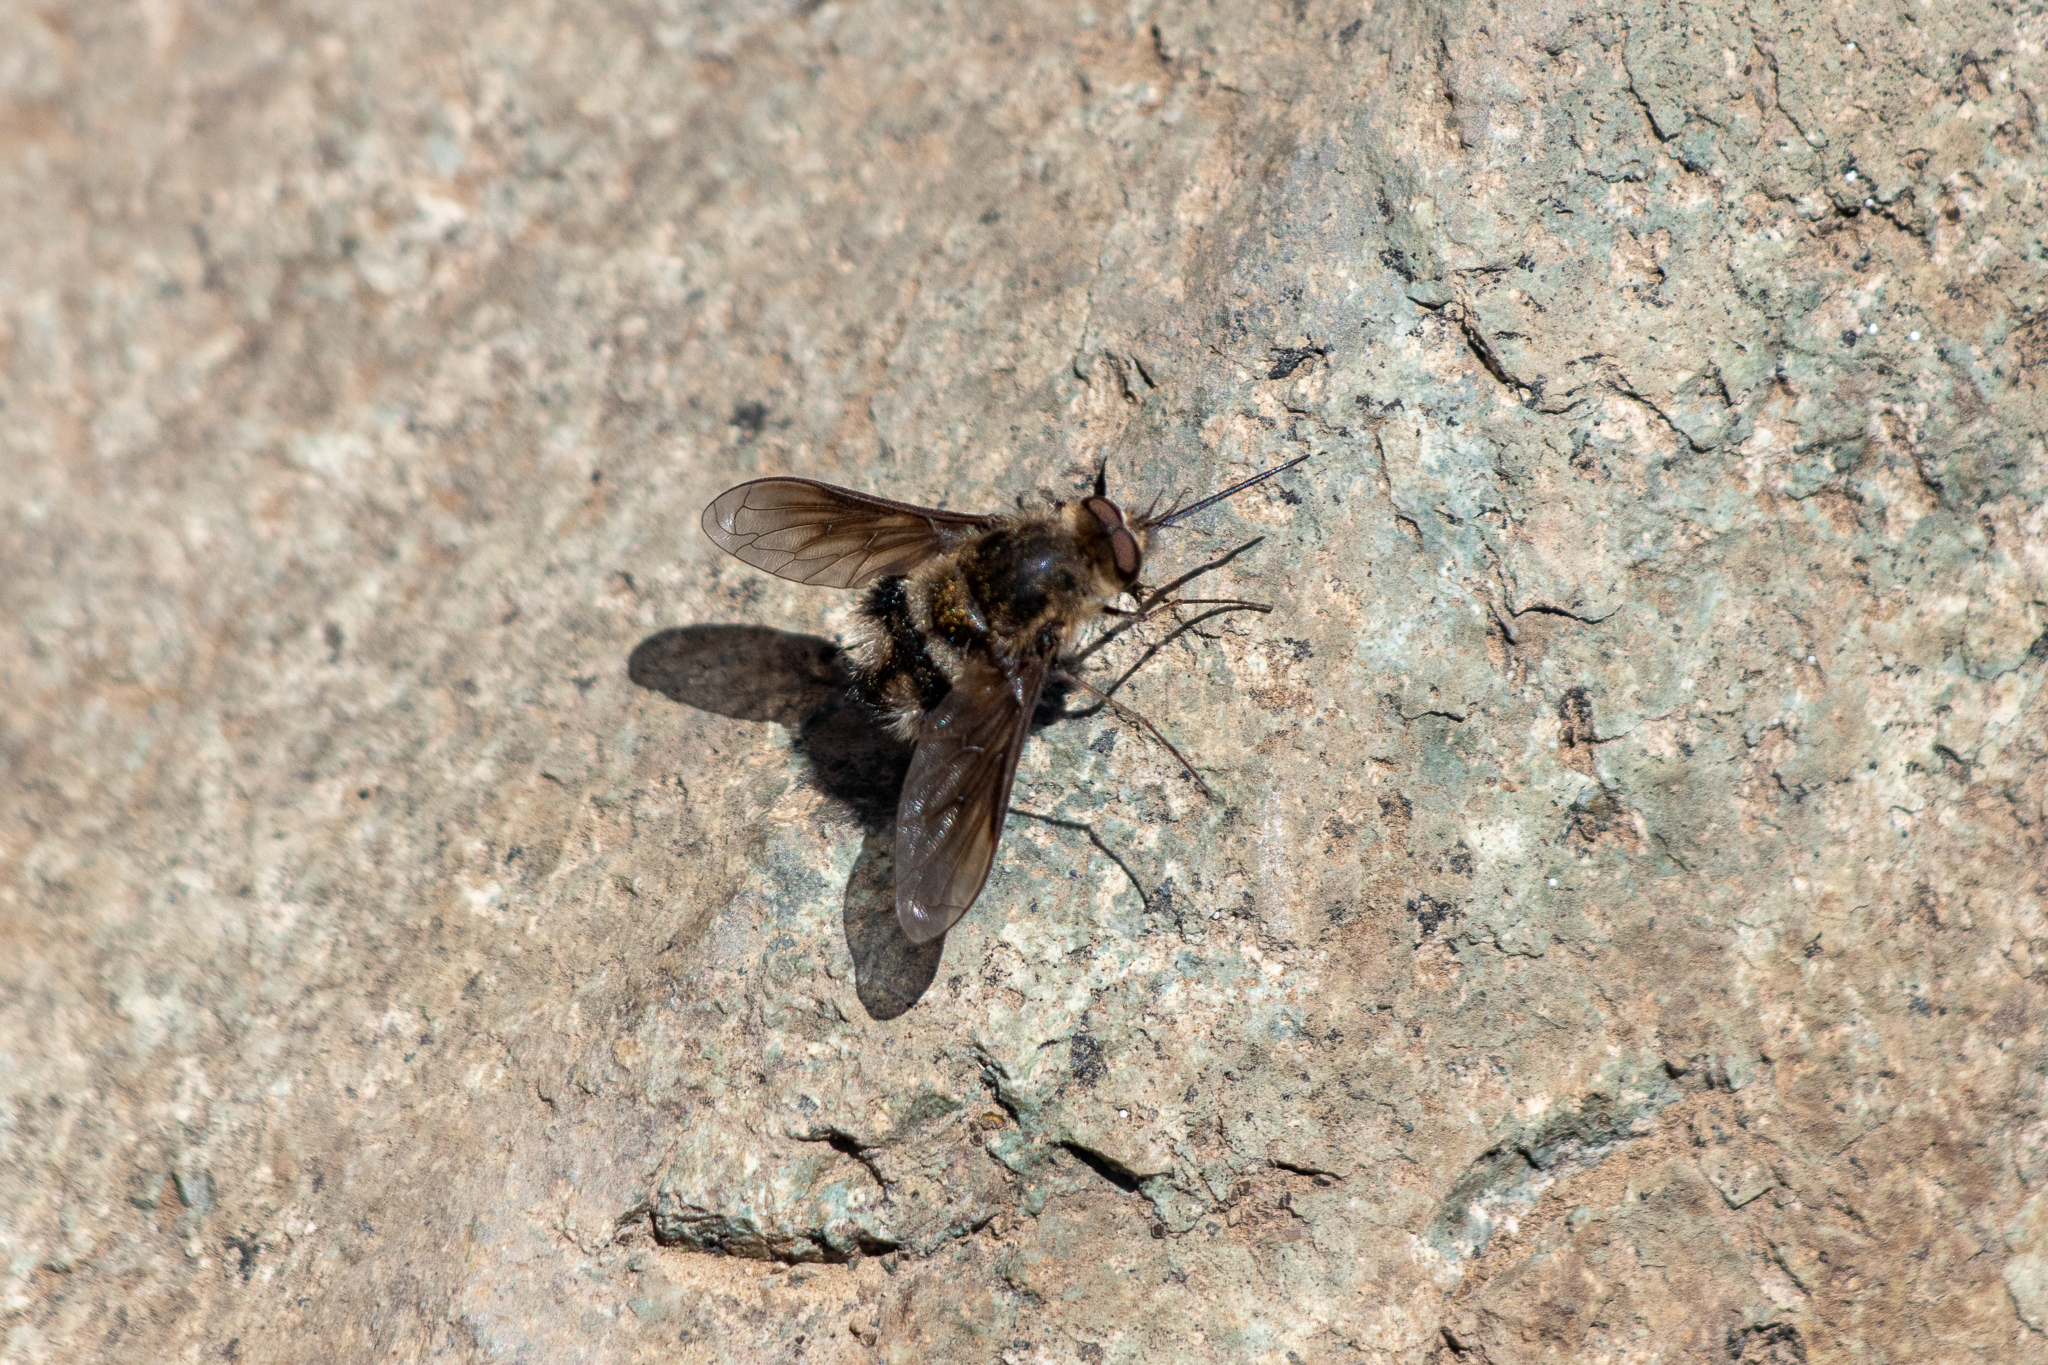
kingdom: Animalia
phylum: Arthropoda
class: Insecta
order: Diptera
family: Bombyliidae
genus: Triploechus
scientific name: Triploechus heteronevrus
